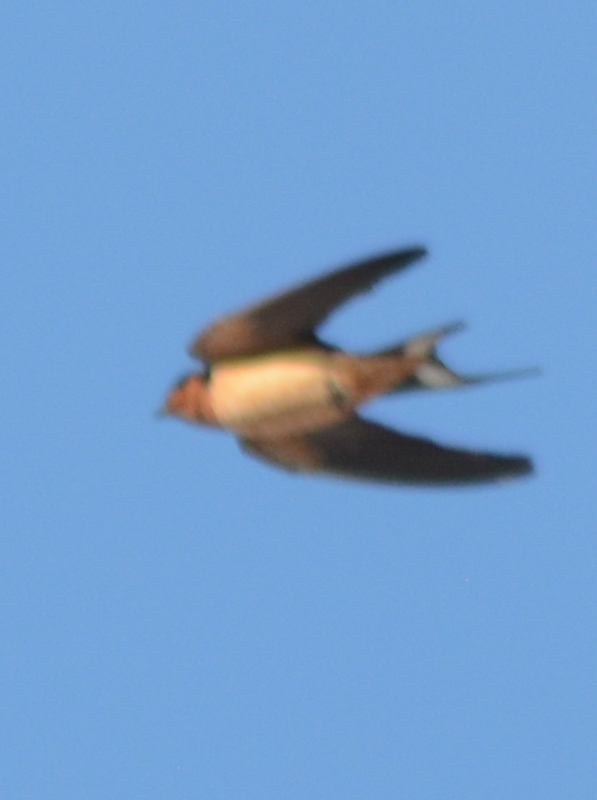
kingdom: Animalia
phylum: Chordata
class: Aves
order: Passeriformes
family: Hirundinidae
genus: Hirundo
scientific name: Hirundo rustica
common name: Barn swallow
